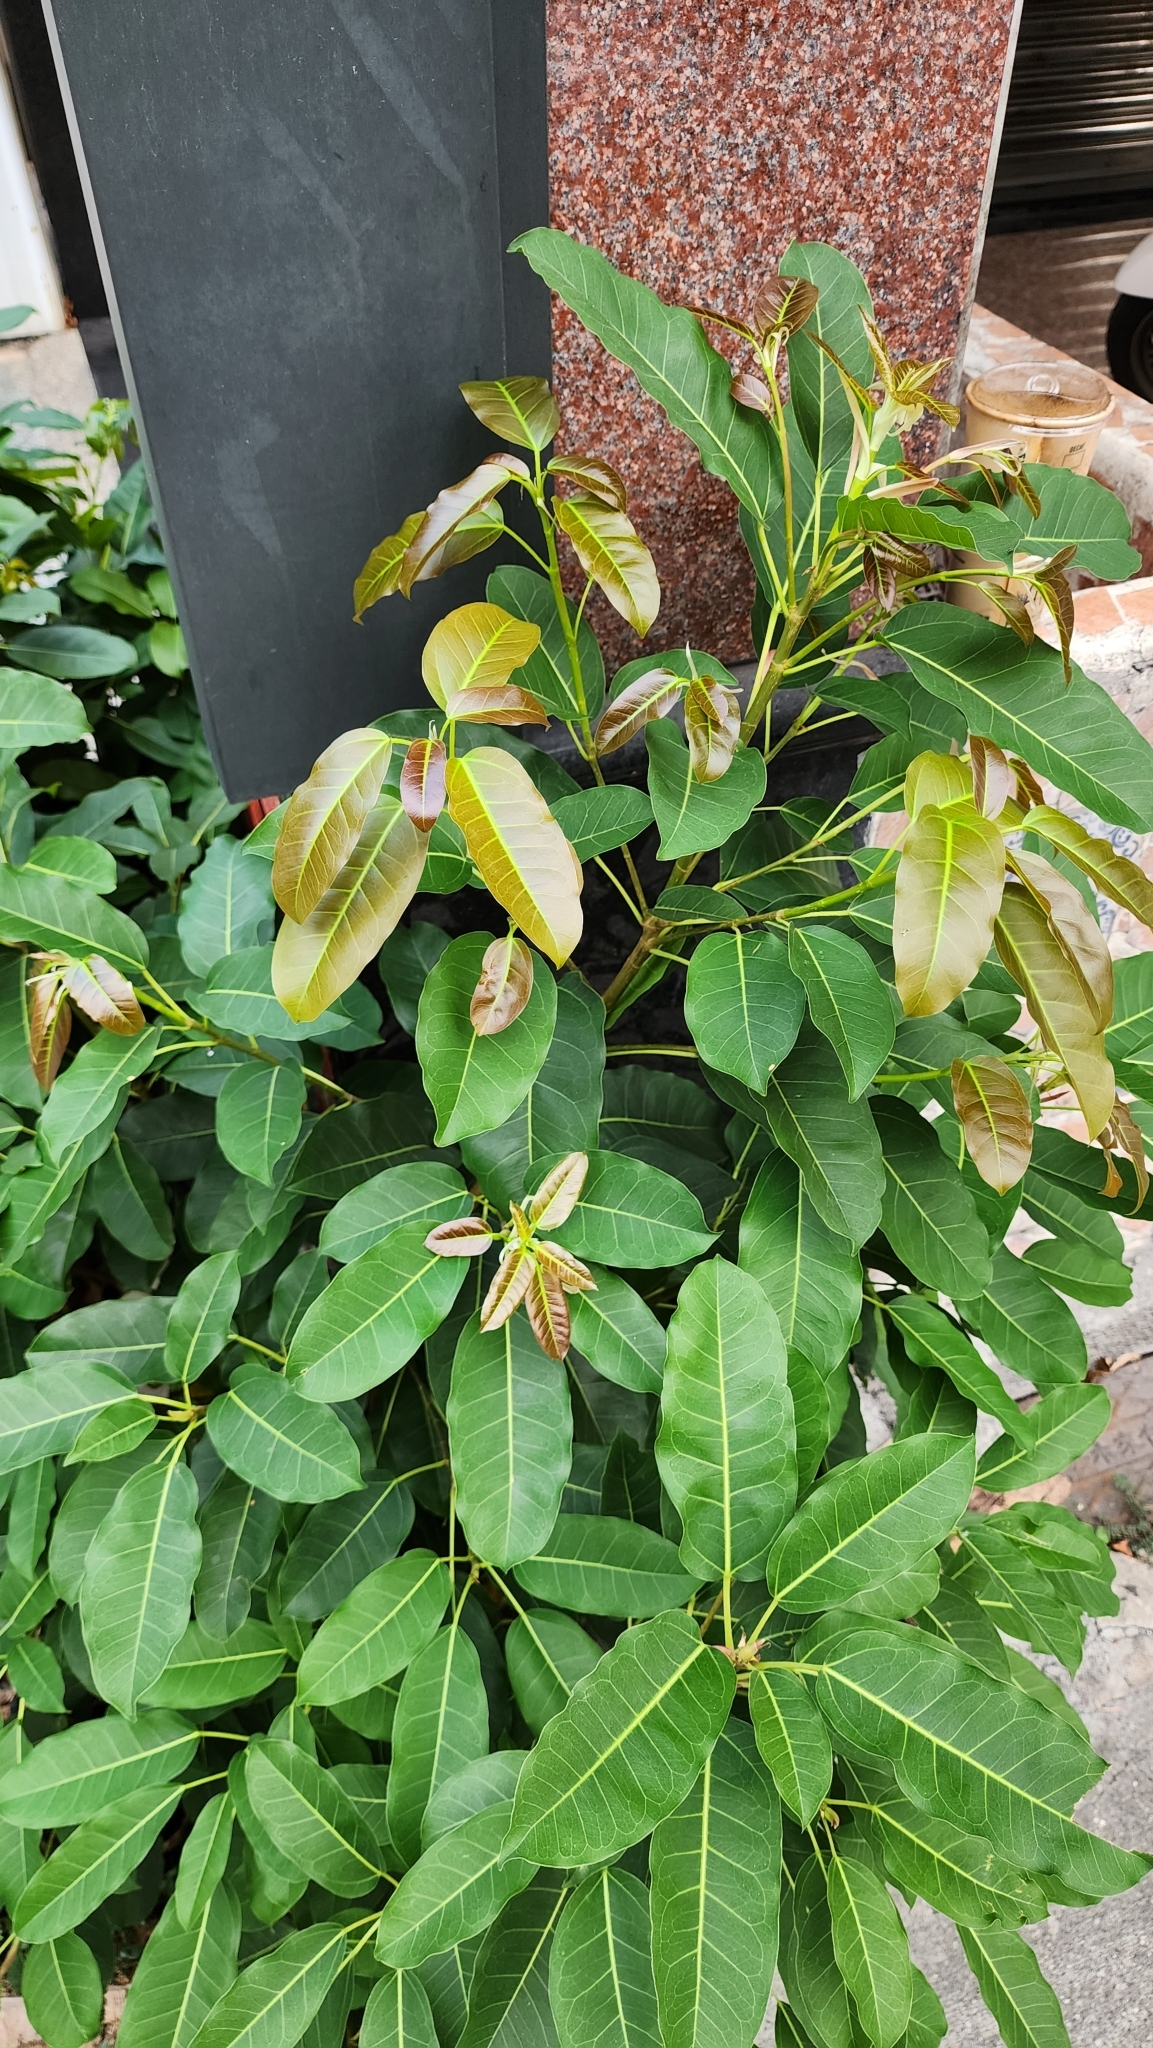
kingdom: Plantae
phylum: Tracheophyta
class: Magnoliopsida
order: Rosales
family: Moraceae
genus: Ficus
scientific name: Ficus subpisocarpa
